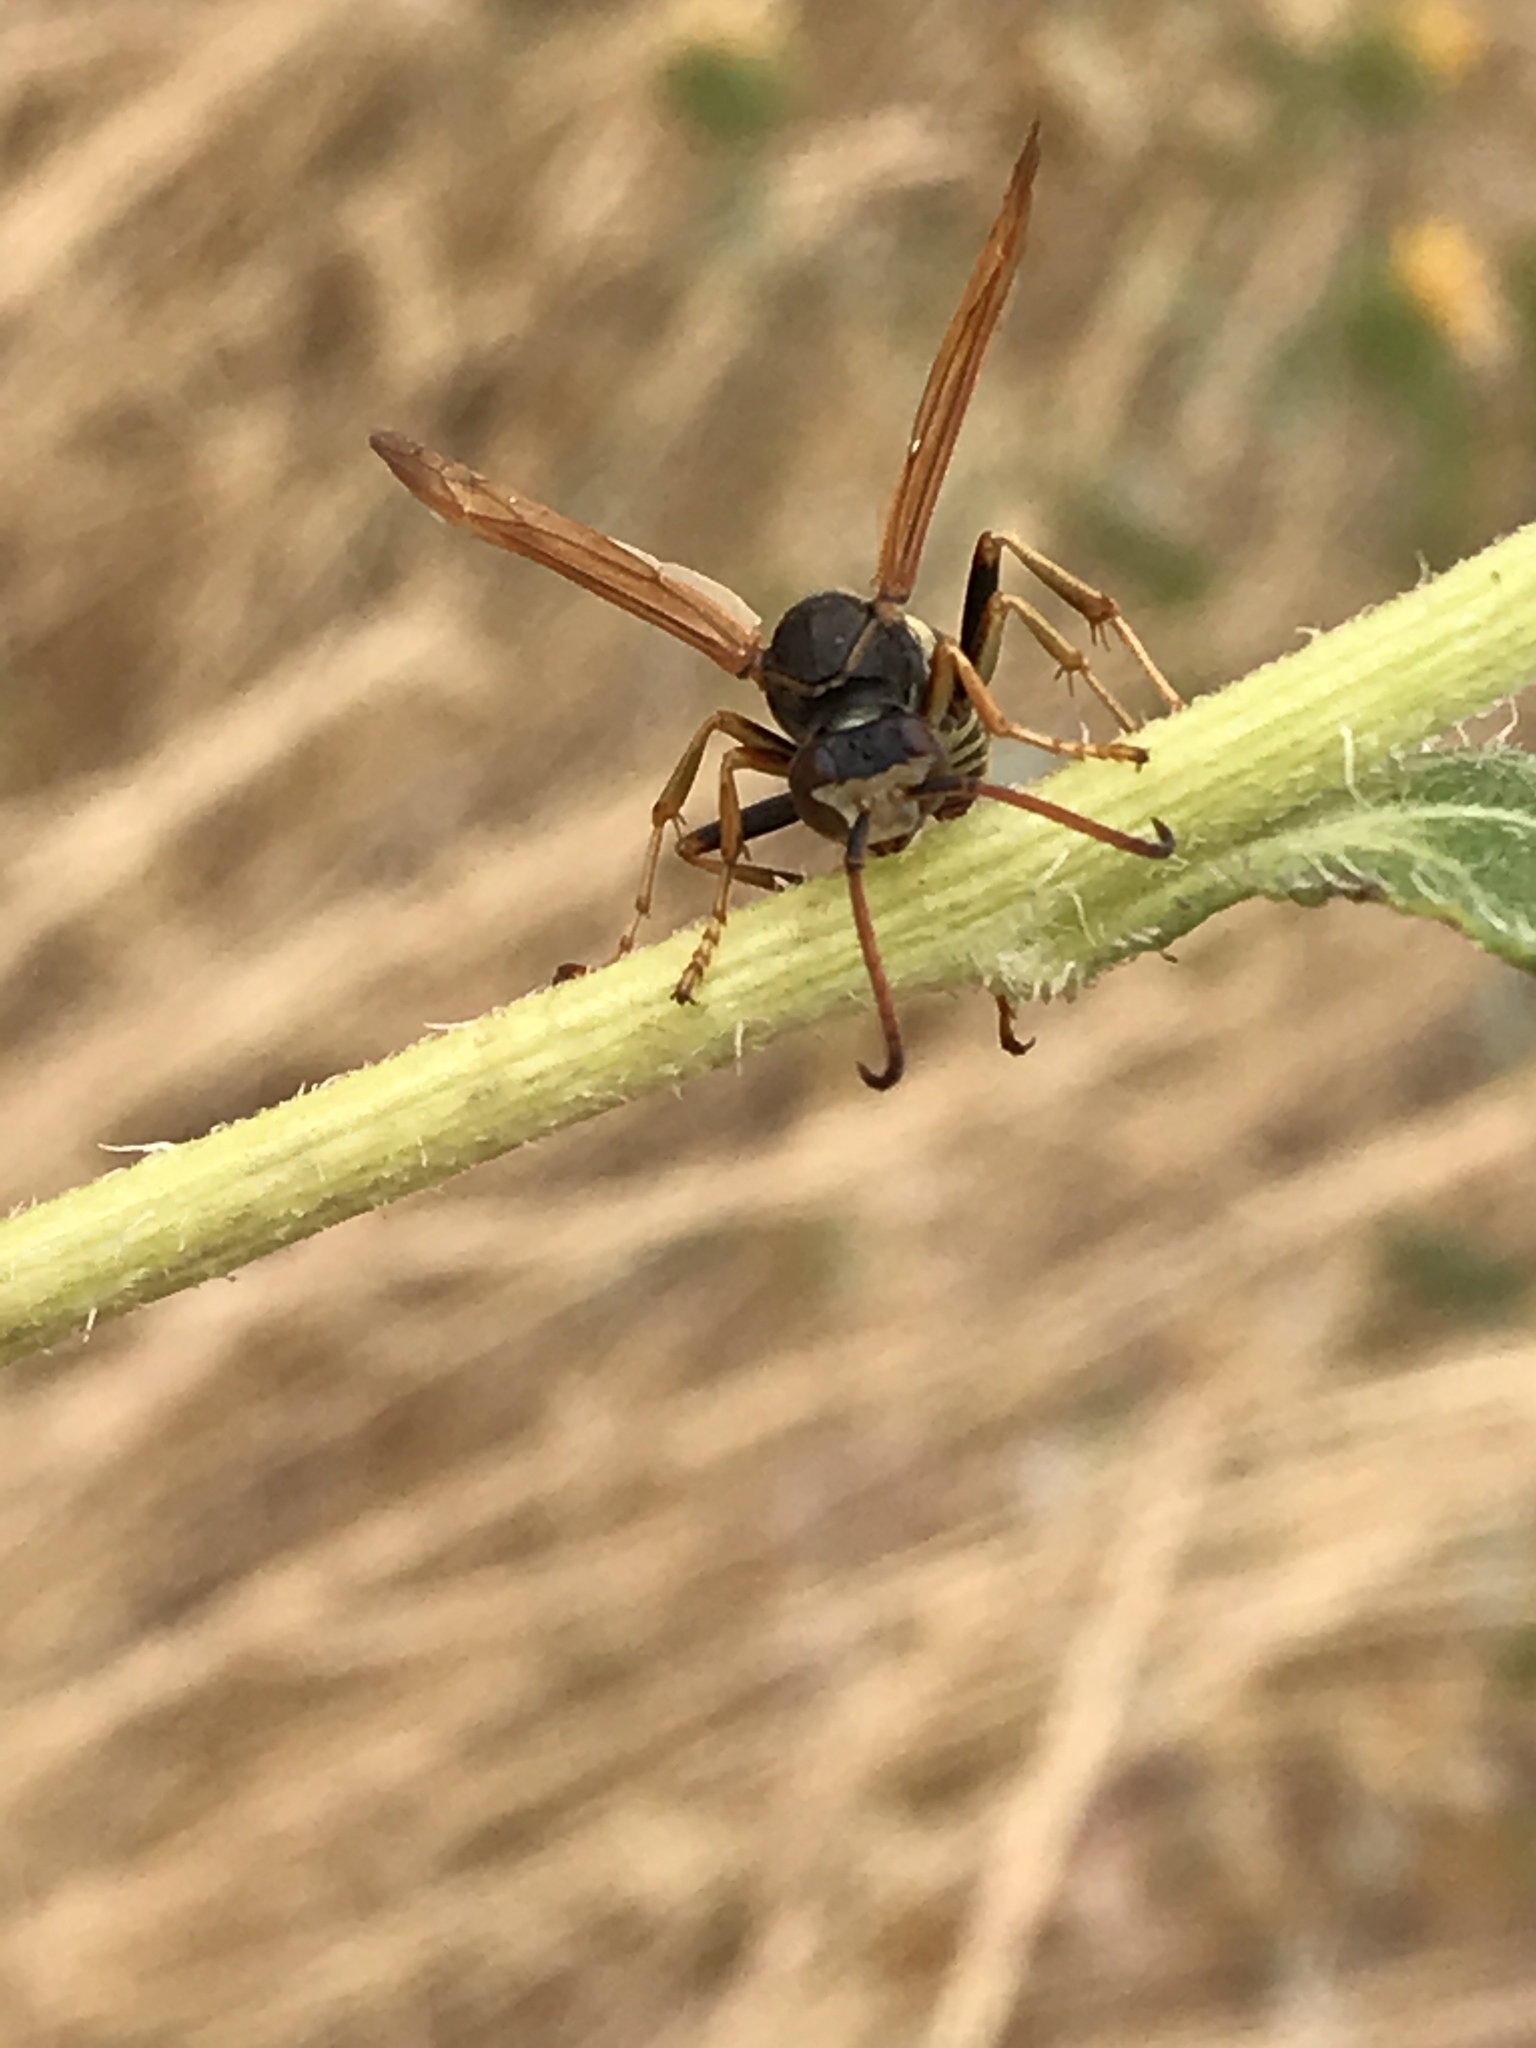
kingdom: Animalia
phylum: Arthropoda
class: Insecta
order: Hymenoptera
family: Eumenidae
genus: Polistes
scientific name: Polistes aurifer
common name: Paper wasp
